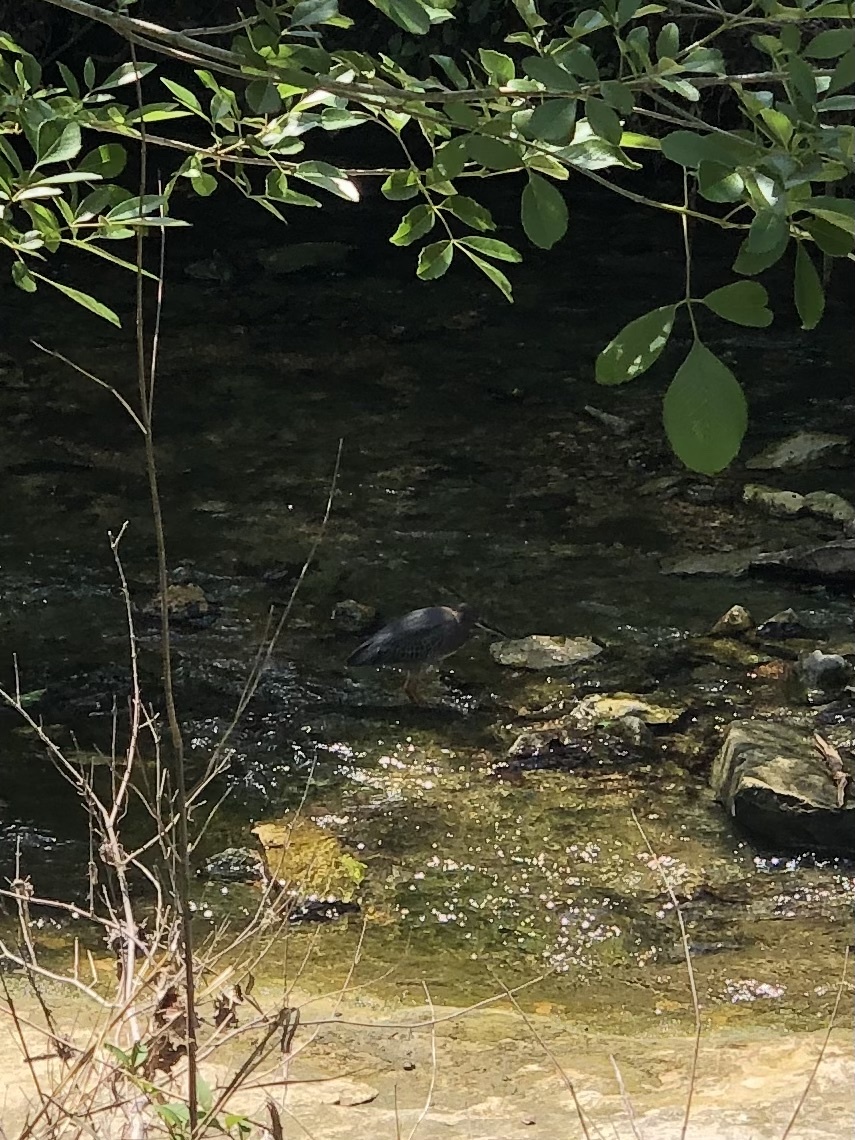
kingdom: Animalia
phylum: Chordata
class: Aves
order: Pelecaniformes
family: Ardeidae
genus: Butorides
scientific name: Butorides virescens
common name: Green heron
